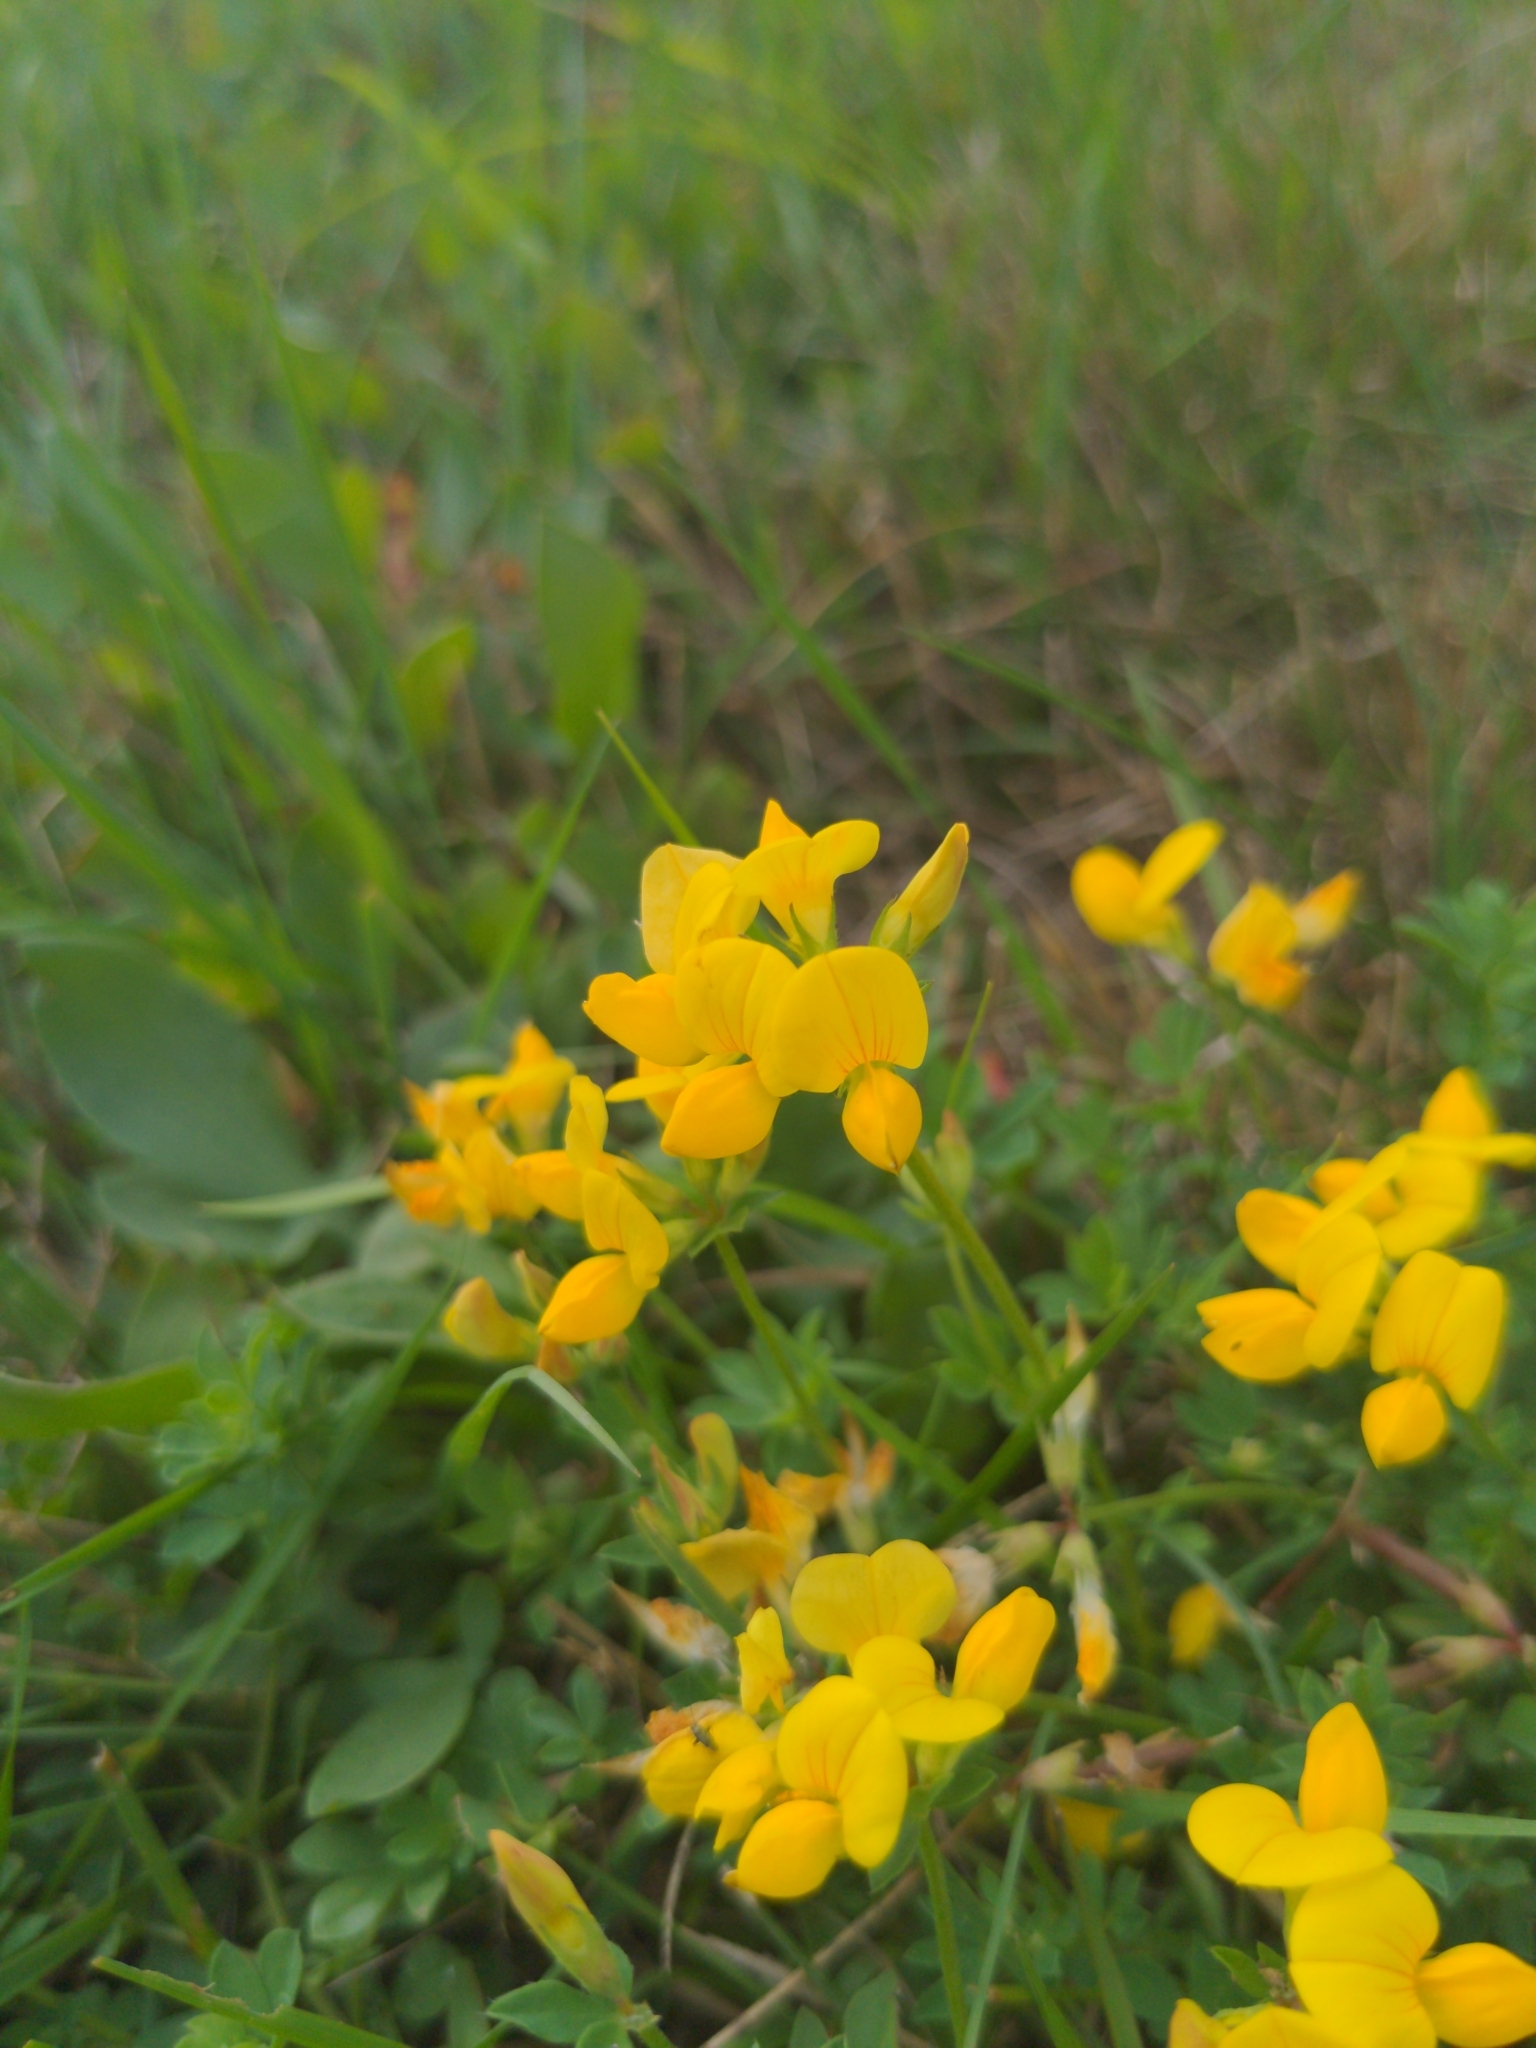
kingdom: Plantae
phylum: Tracheophyta
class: Magnoliopsida
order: Fabales
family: Fabaceae
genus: Lotus
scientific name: Lotus corniculatus
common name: Common bird's-foot-trefoil
